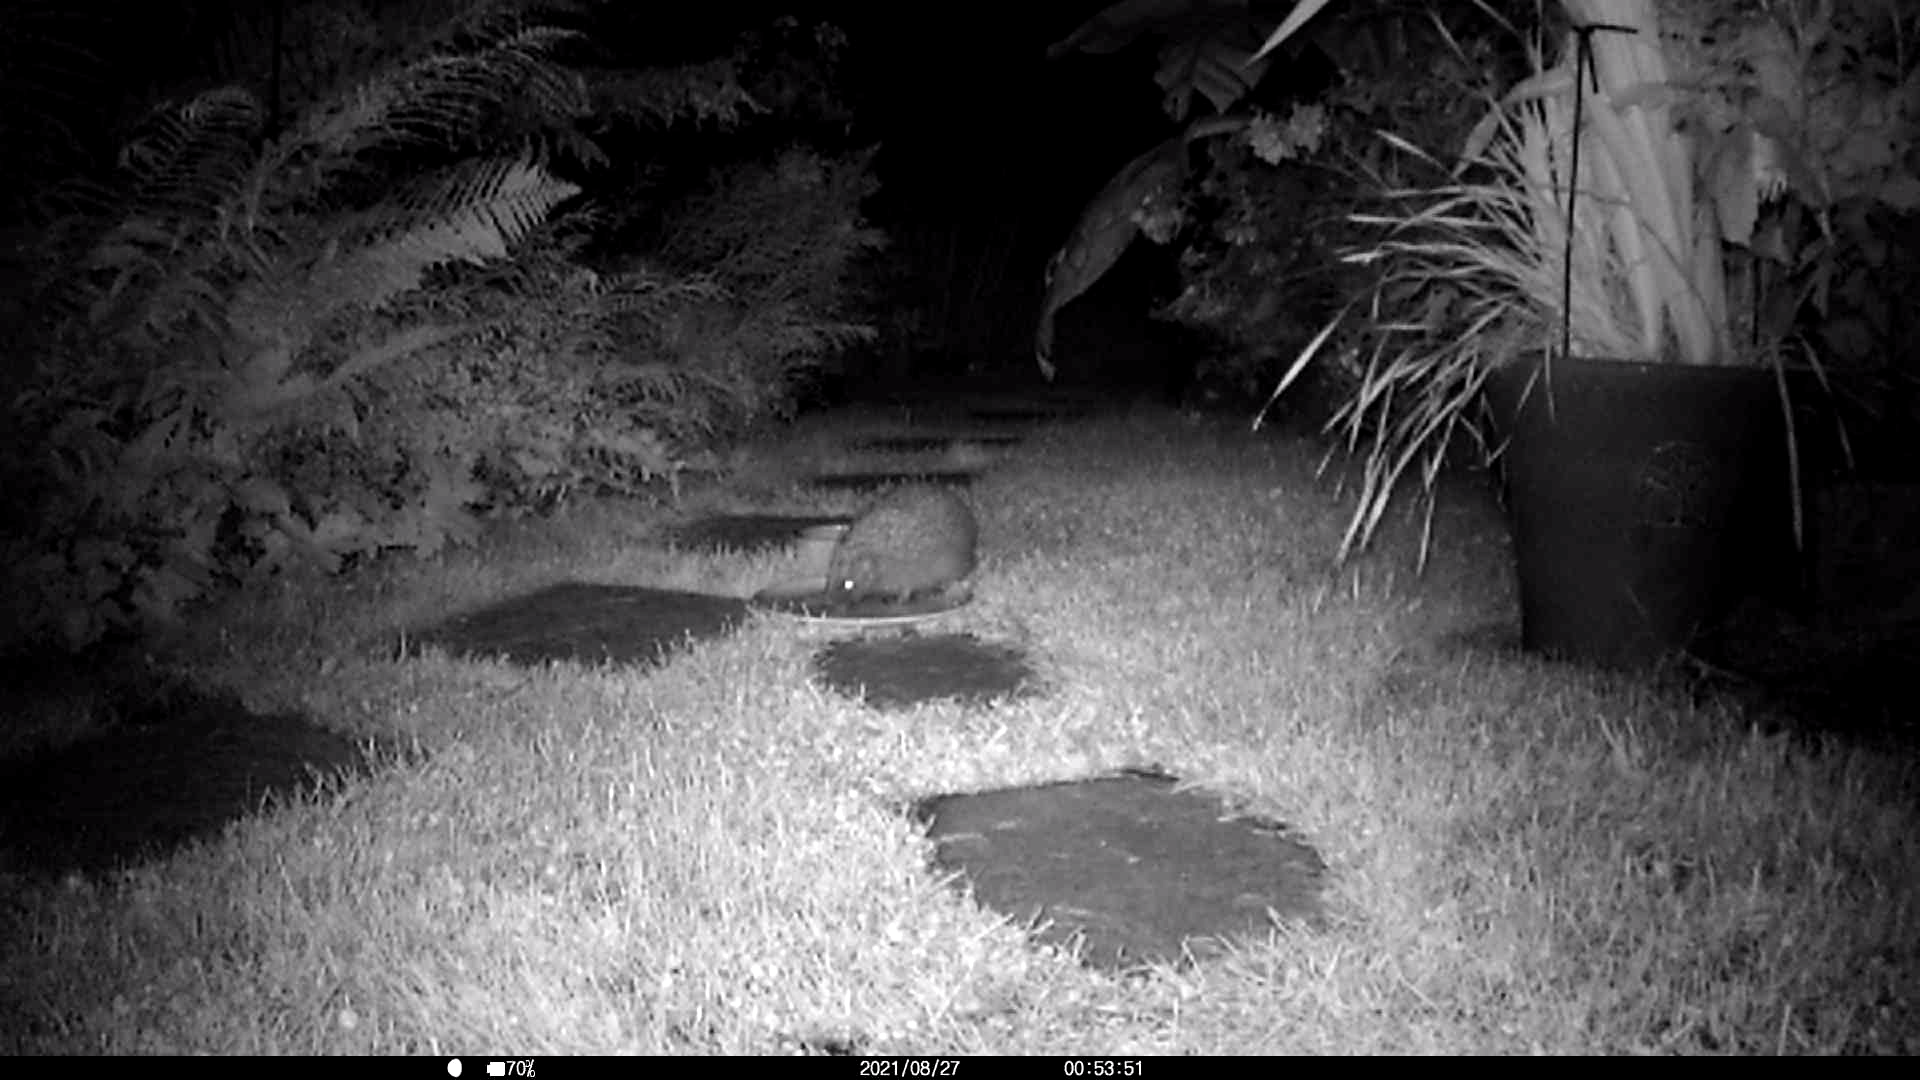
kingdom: Animalia
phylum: Chordata
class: Mammalia
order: Erinaceomorpha
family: Erinaceidae
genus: Erinaceus
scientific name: Erinaceus europaeus
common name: West european hedgehog
